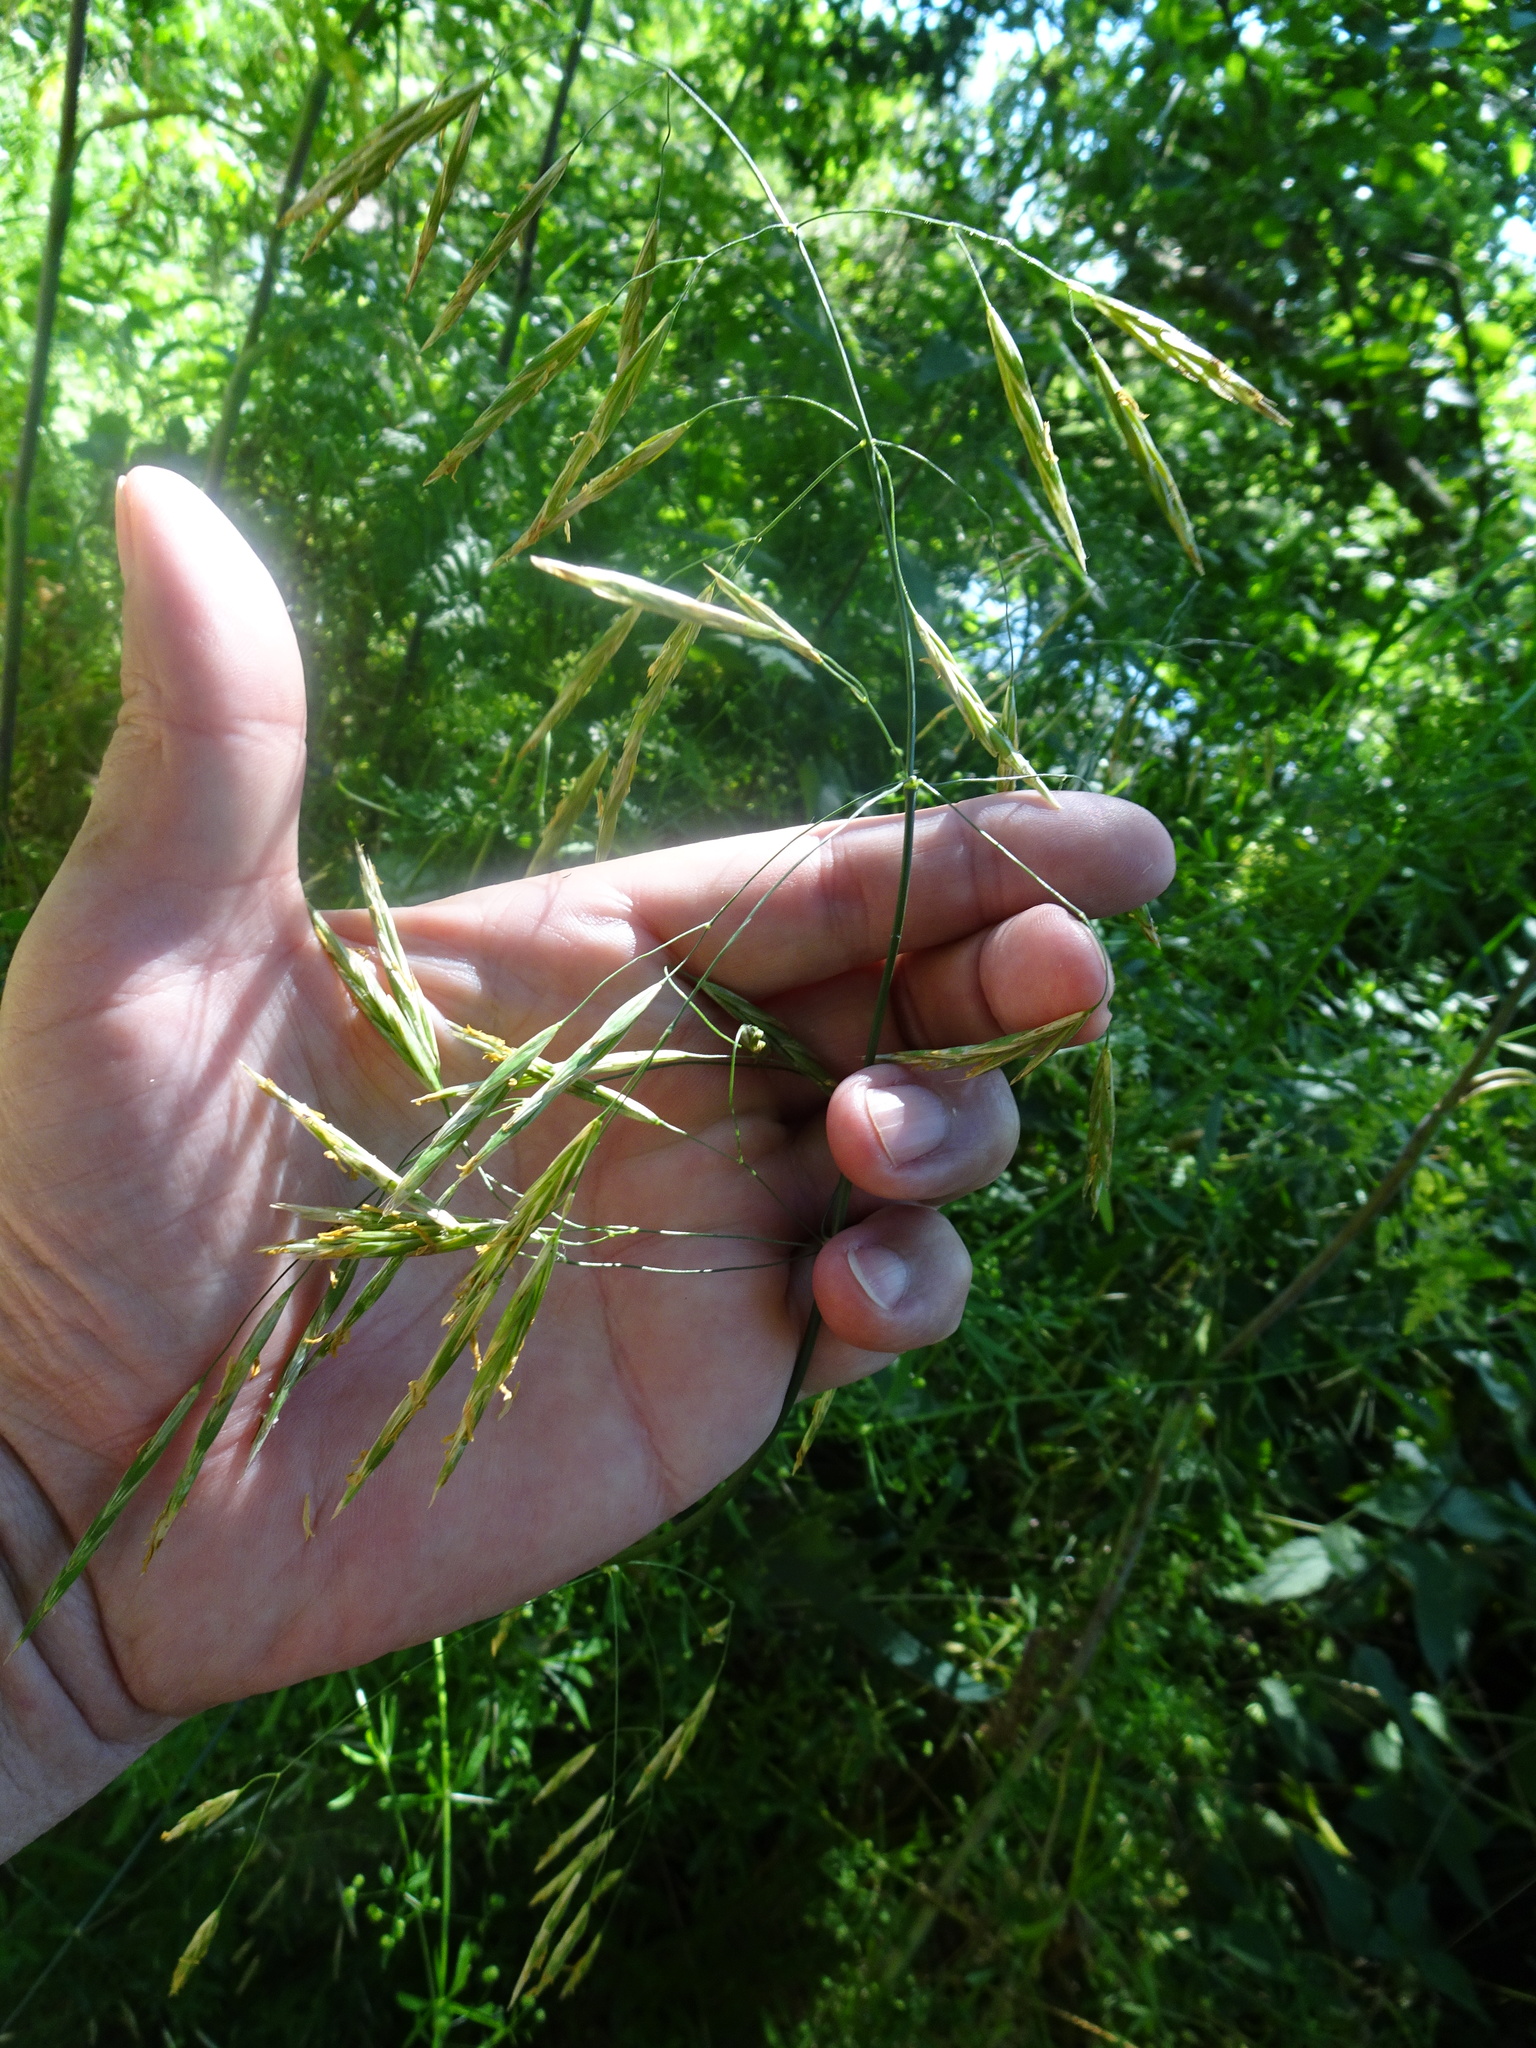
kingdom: Plantae
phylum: Tracheophyta
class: Liliopsida
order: Poales
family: Poaceae
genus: Bromus
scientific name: Bromus inermis
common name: Smooth brome
